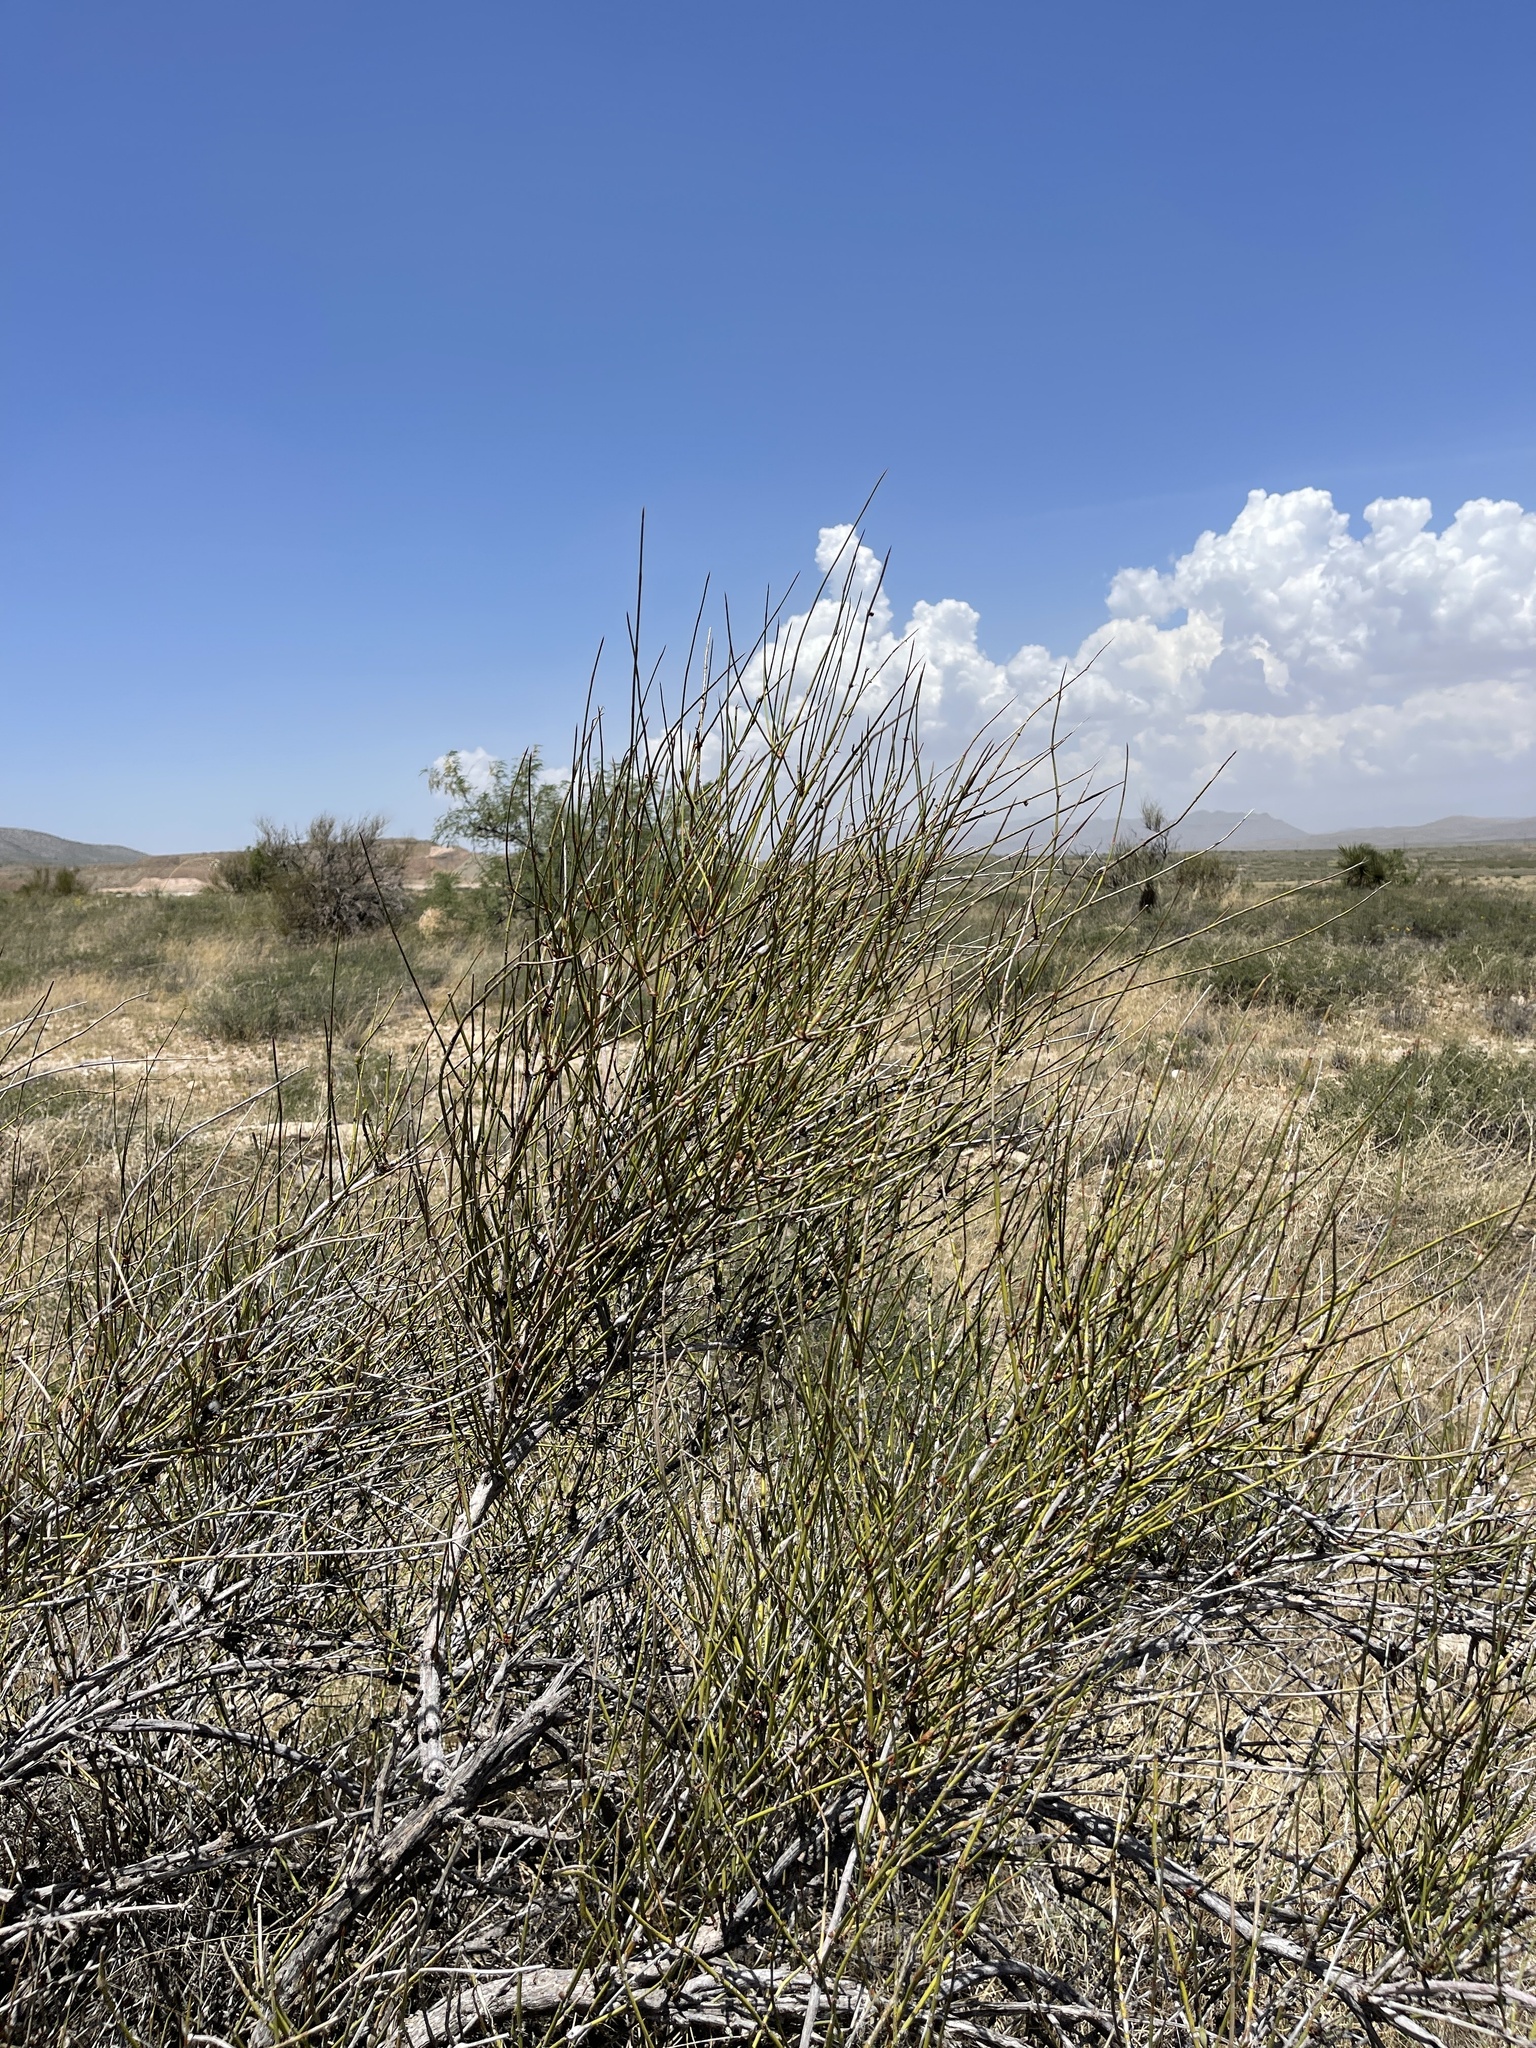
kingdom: Plantae
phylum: Tracheophyta
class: Gnetopsida
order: Ephedrales
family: Ephedraceae
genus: Ephedra
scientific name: Ephedra trifurca
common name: Mexican-tea
